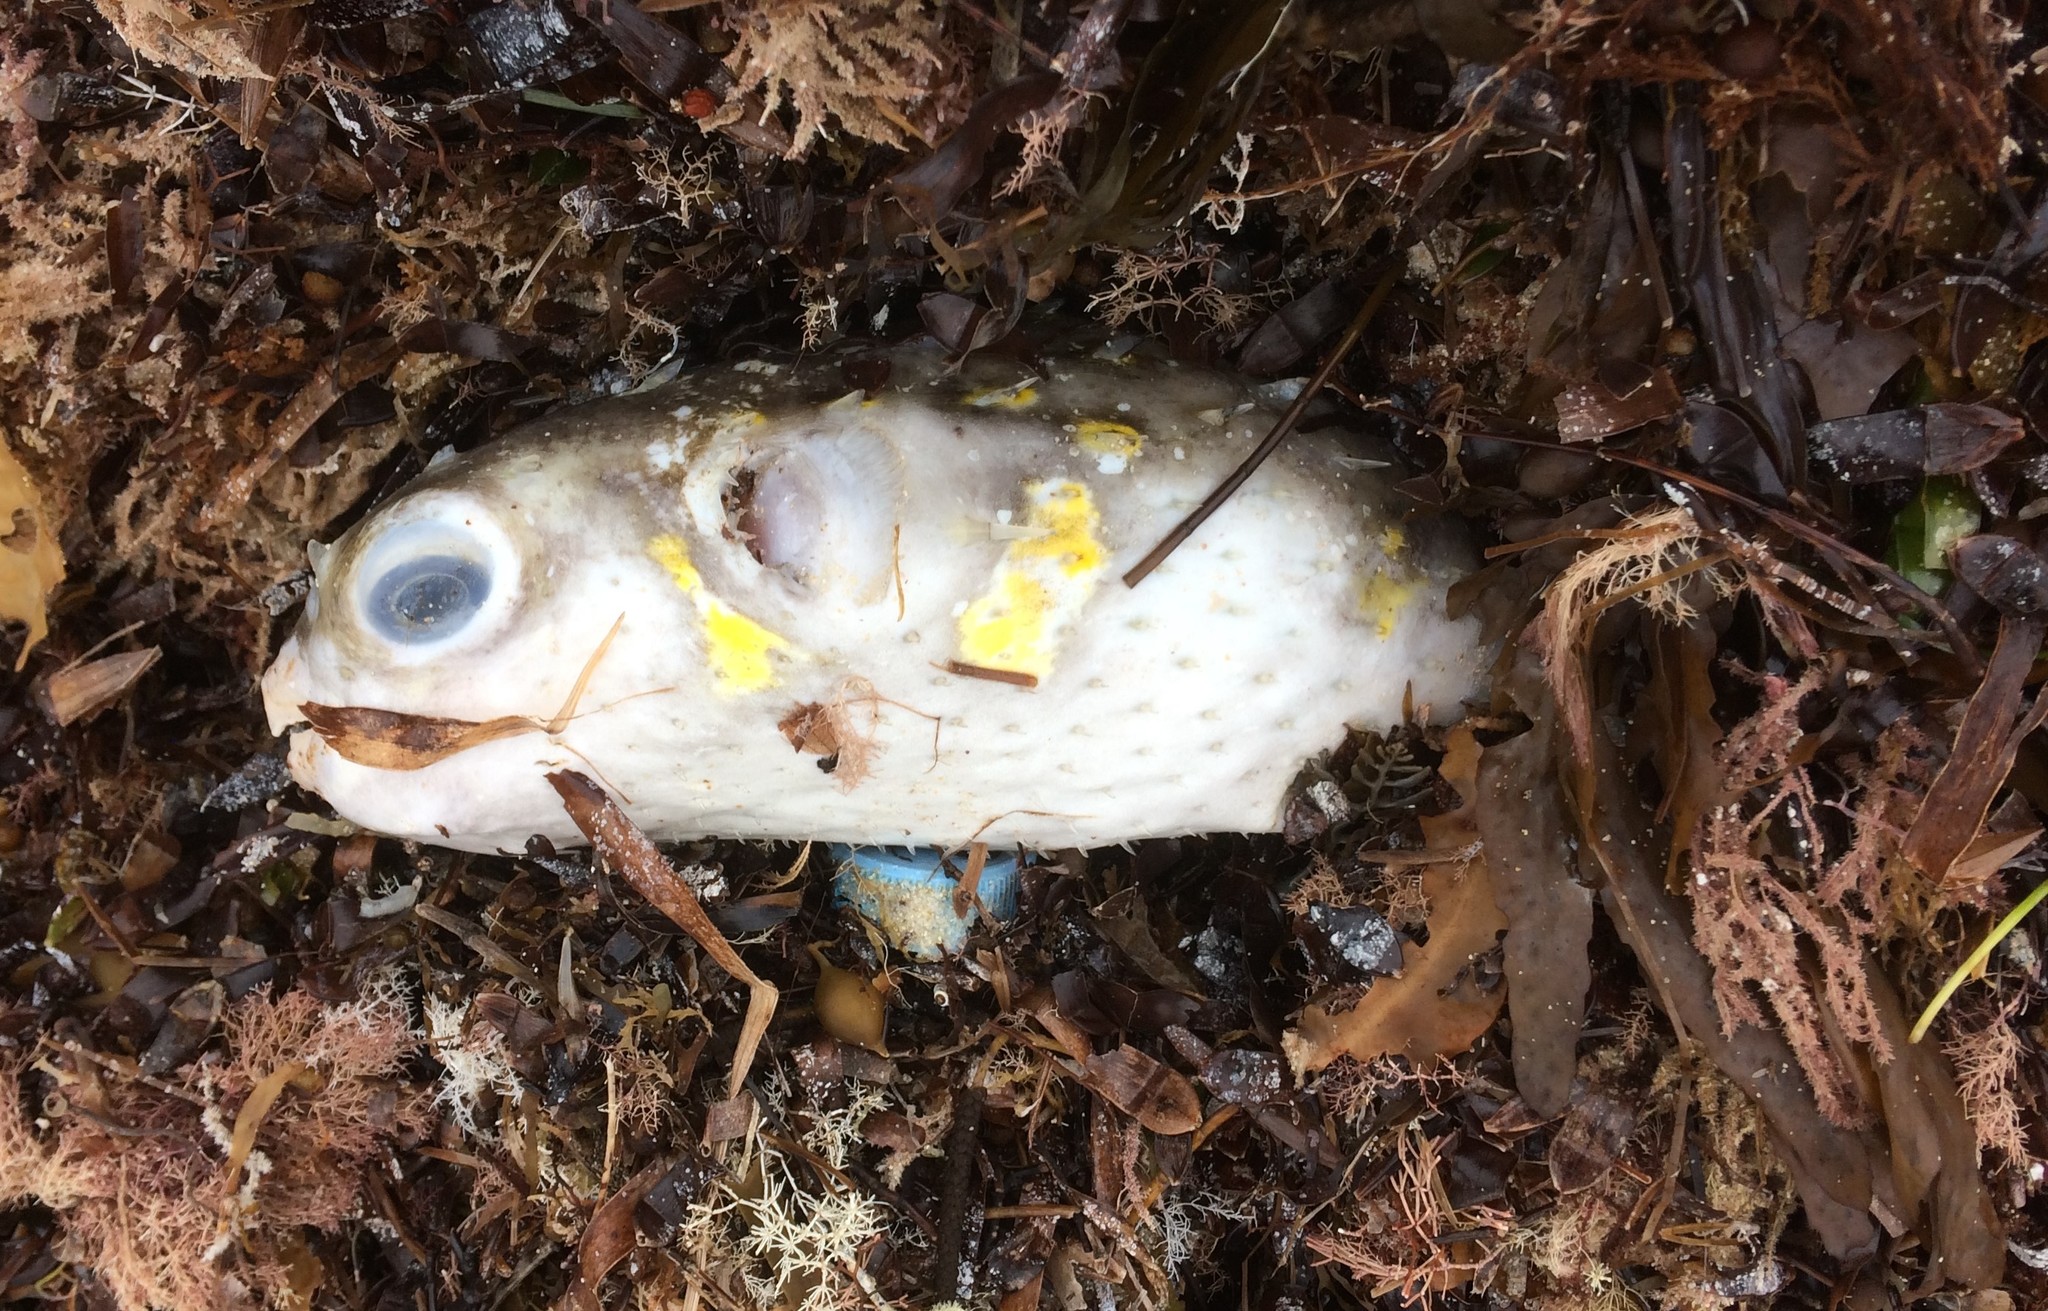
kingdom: Animalia
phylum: Chordata
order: Tetraodontiformes
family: Diodontidae
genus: Allomycterus
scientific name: Allomycterus pilatus
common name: No common name
